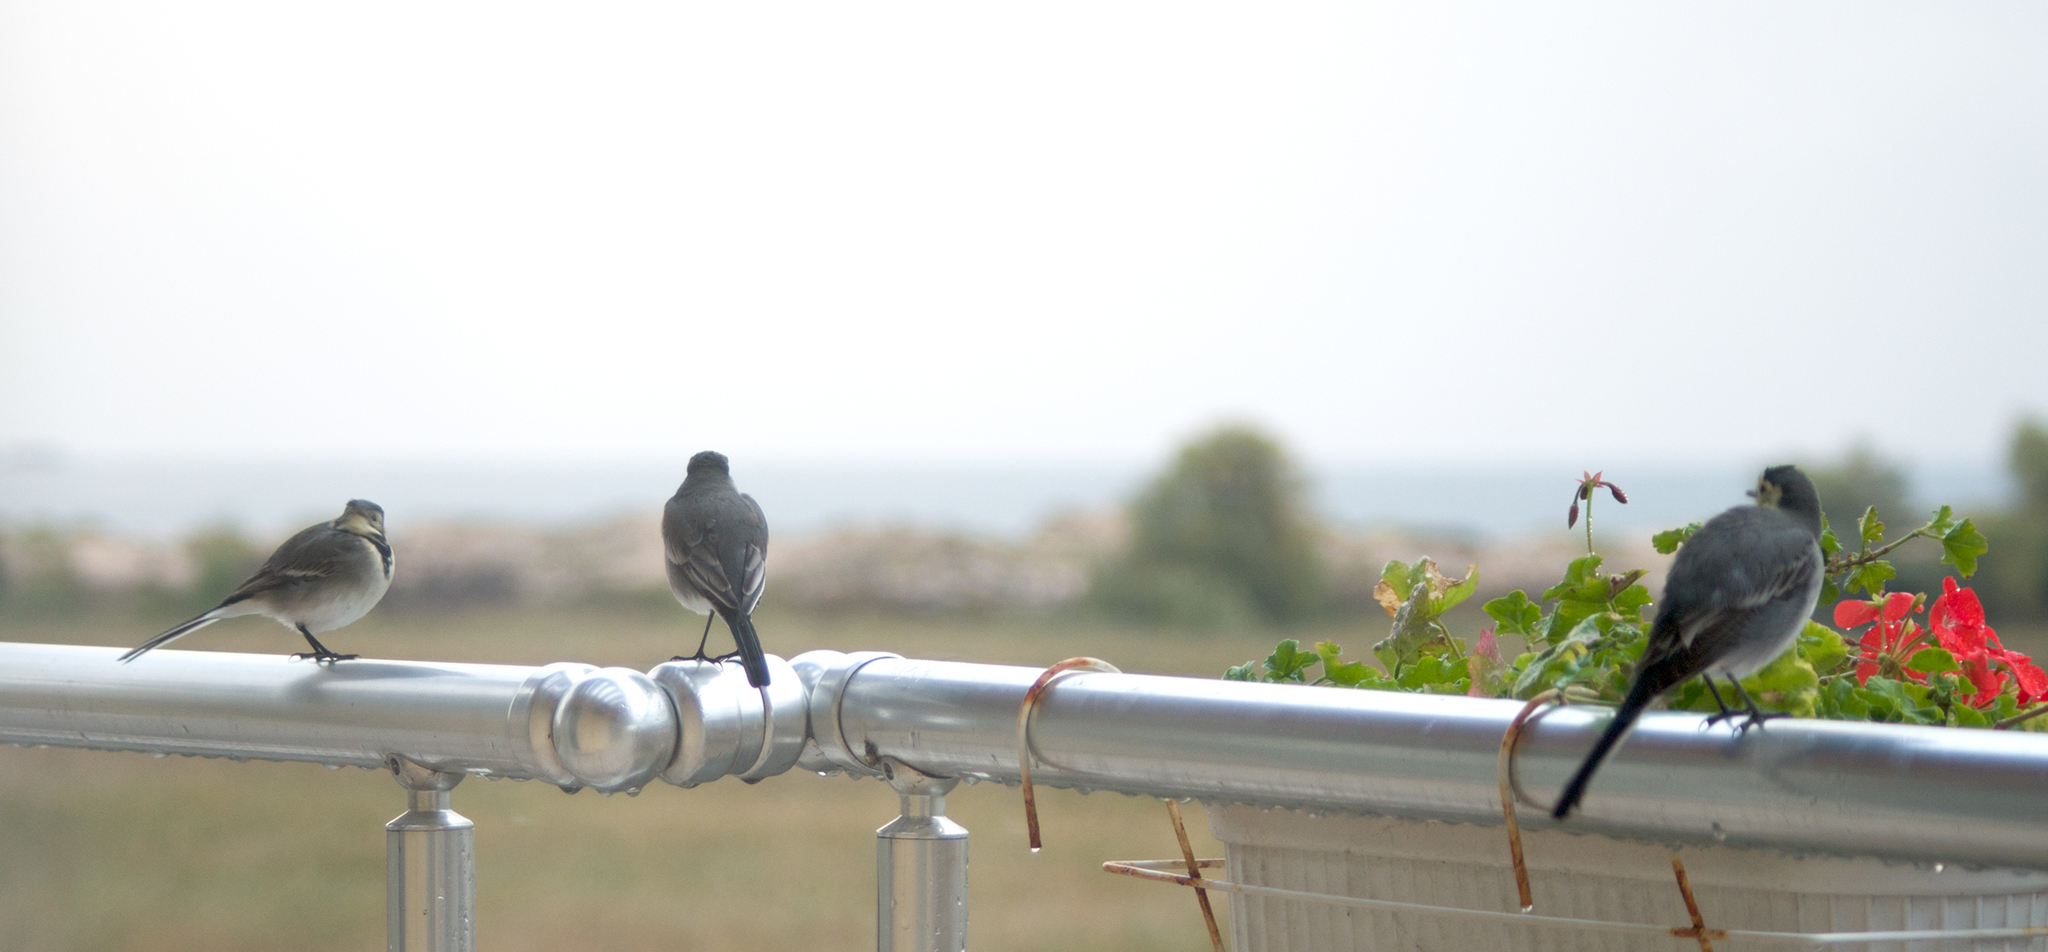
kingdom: Animalia
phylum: Chordata
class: Aves
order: Passeriformes
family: Motacillidae
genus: Motacilla
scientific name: Motacilla alba
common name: White wagtail
